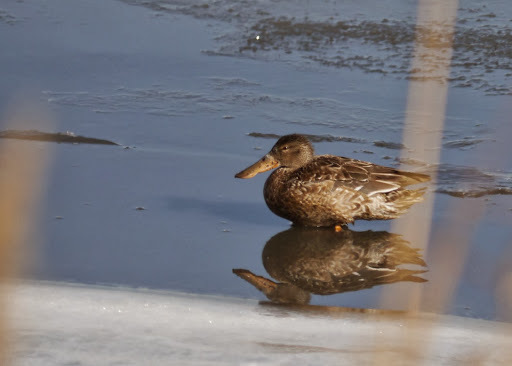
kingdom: Animalia
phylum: Chordata
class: Aves
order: Anseriformes
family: Anatidae
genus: Spatula
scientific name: Spatula clypeata
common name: Northern shoveler
